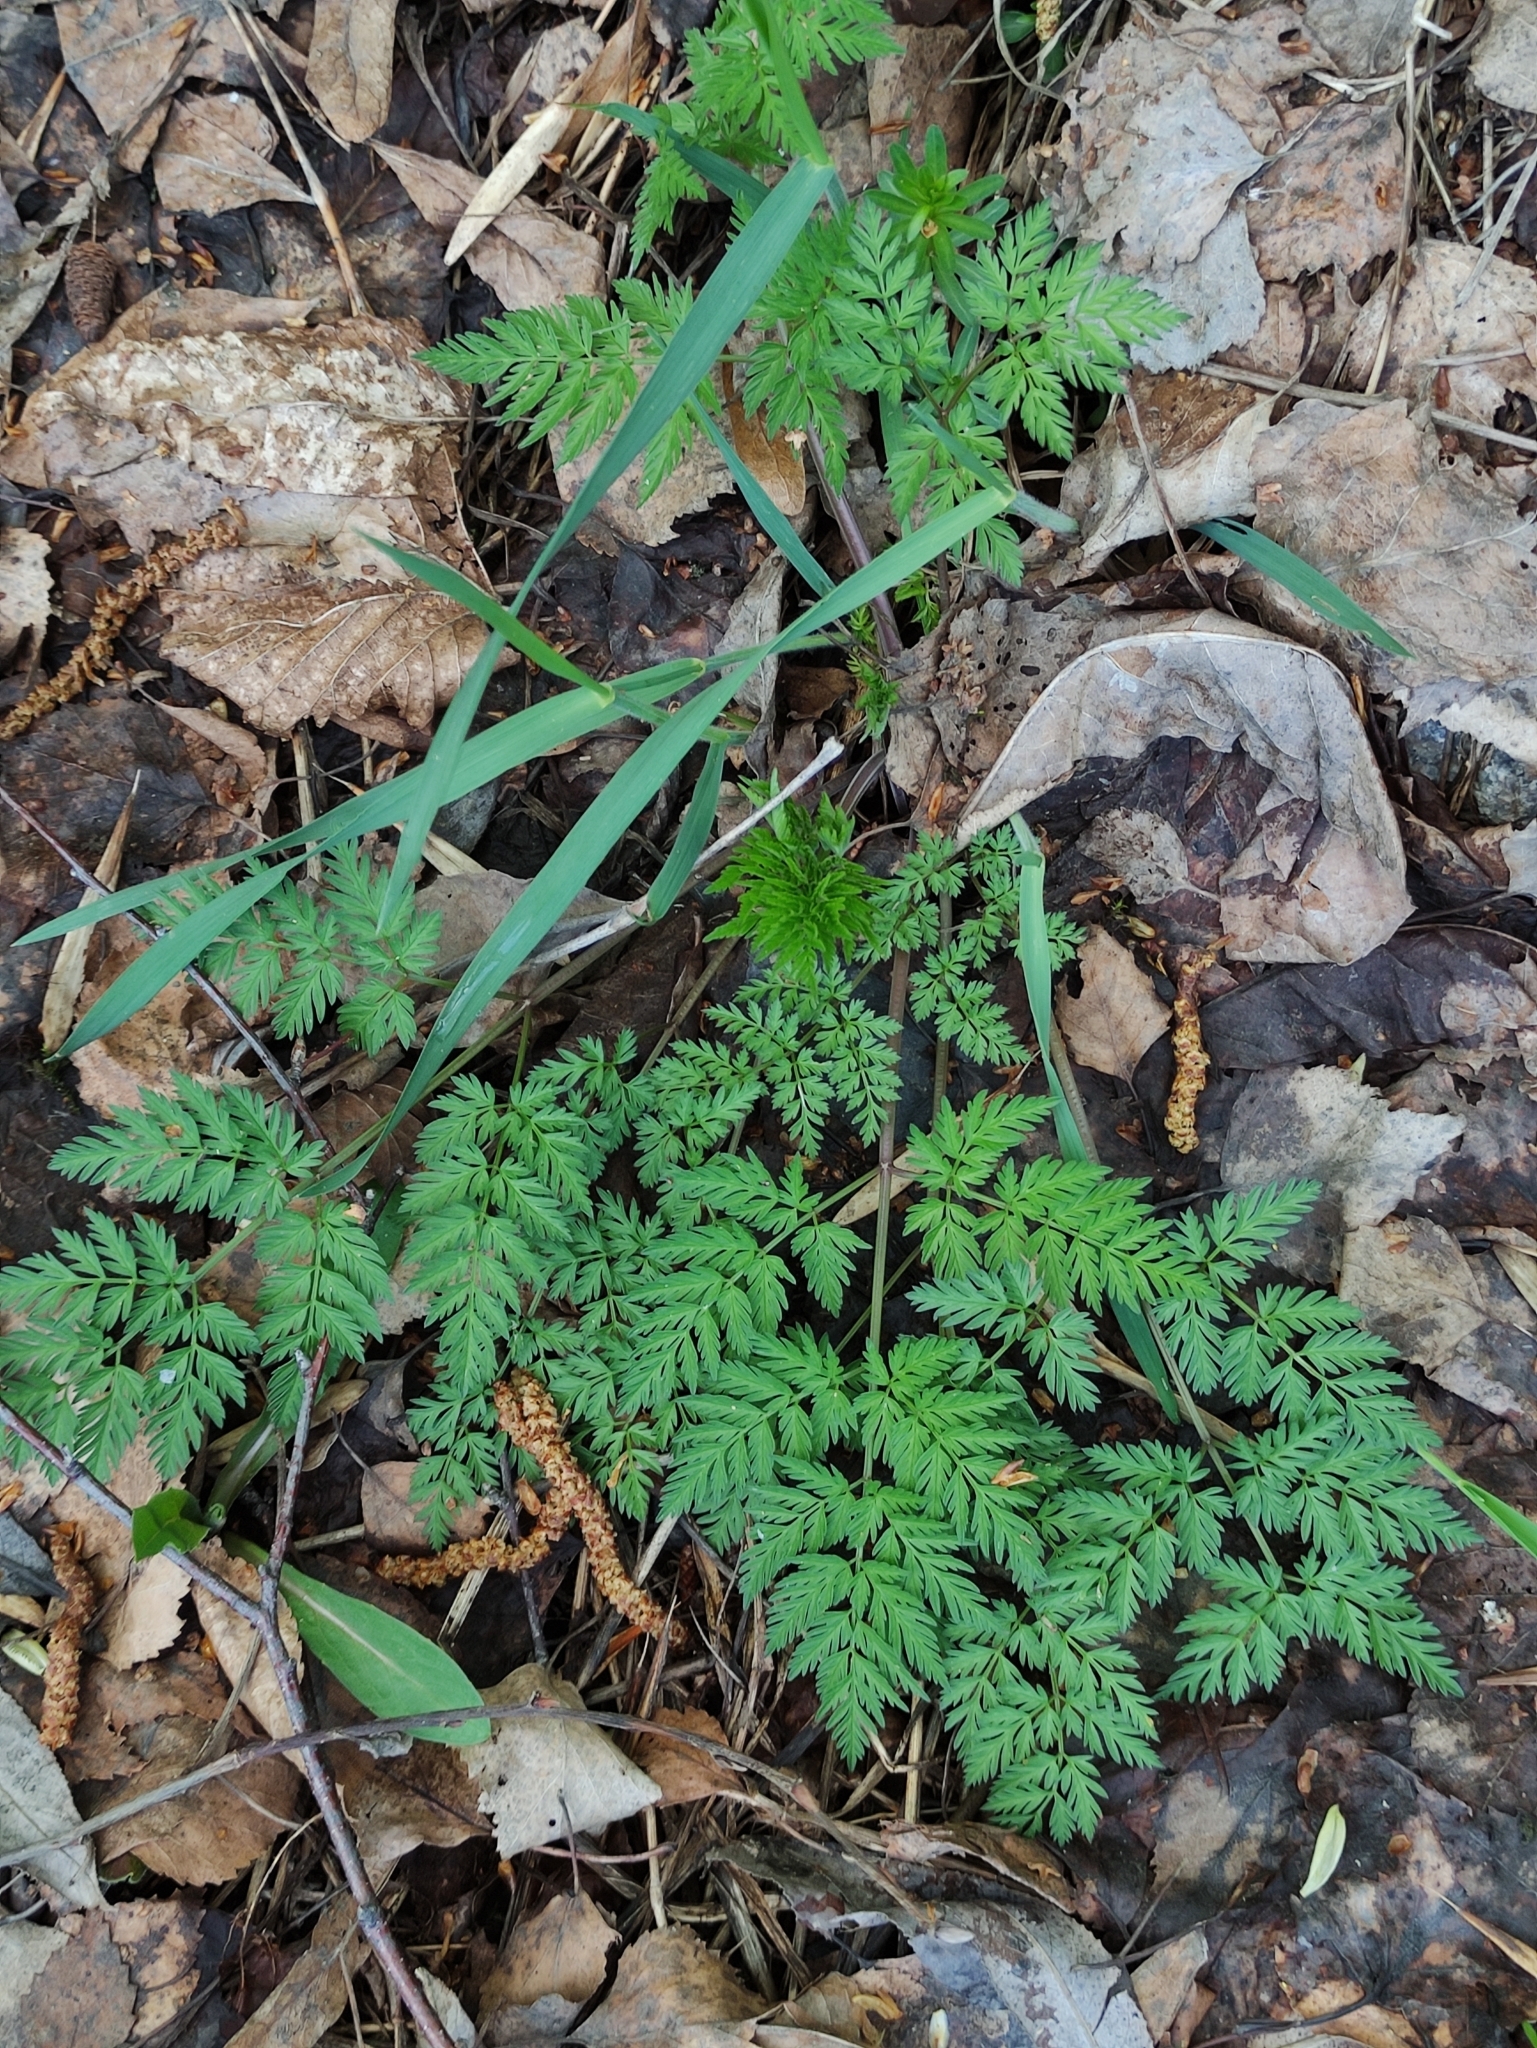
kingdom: Plantae
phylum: Tracheophyta
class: Magnoliopsida
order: Apiales
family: Apiaceae
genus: Anthriscus
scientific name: Anthriscus sylvestris
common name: Cow parsley
